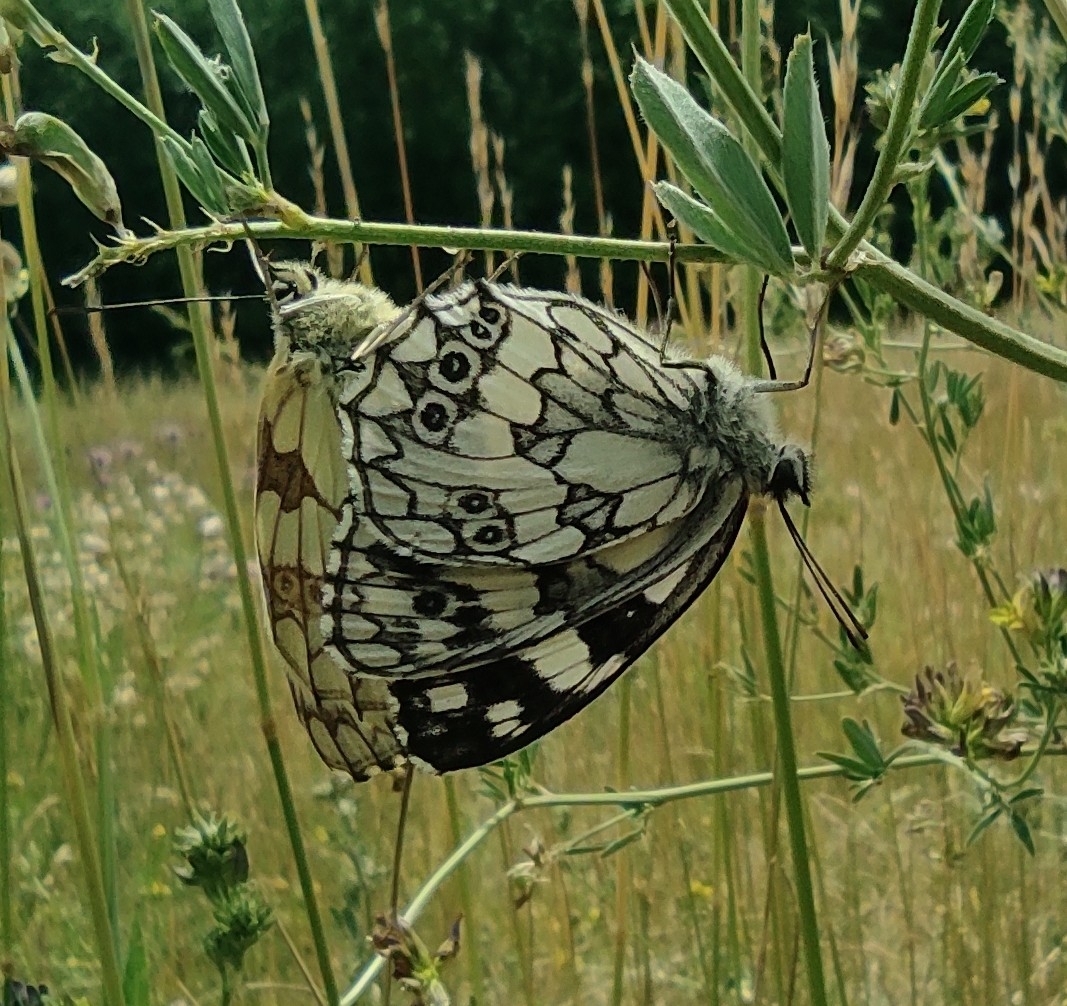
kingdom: Animalia
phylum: Arthropoda
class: Insecta
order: Lepidoptera
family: Nymphalidae
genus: Melanargia
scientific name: Melanargia galathea
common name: Marbled white
